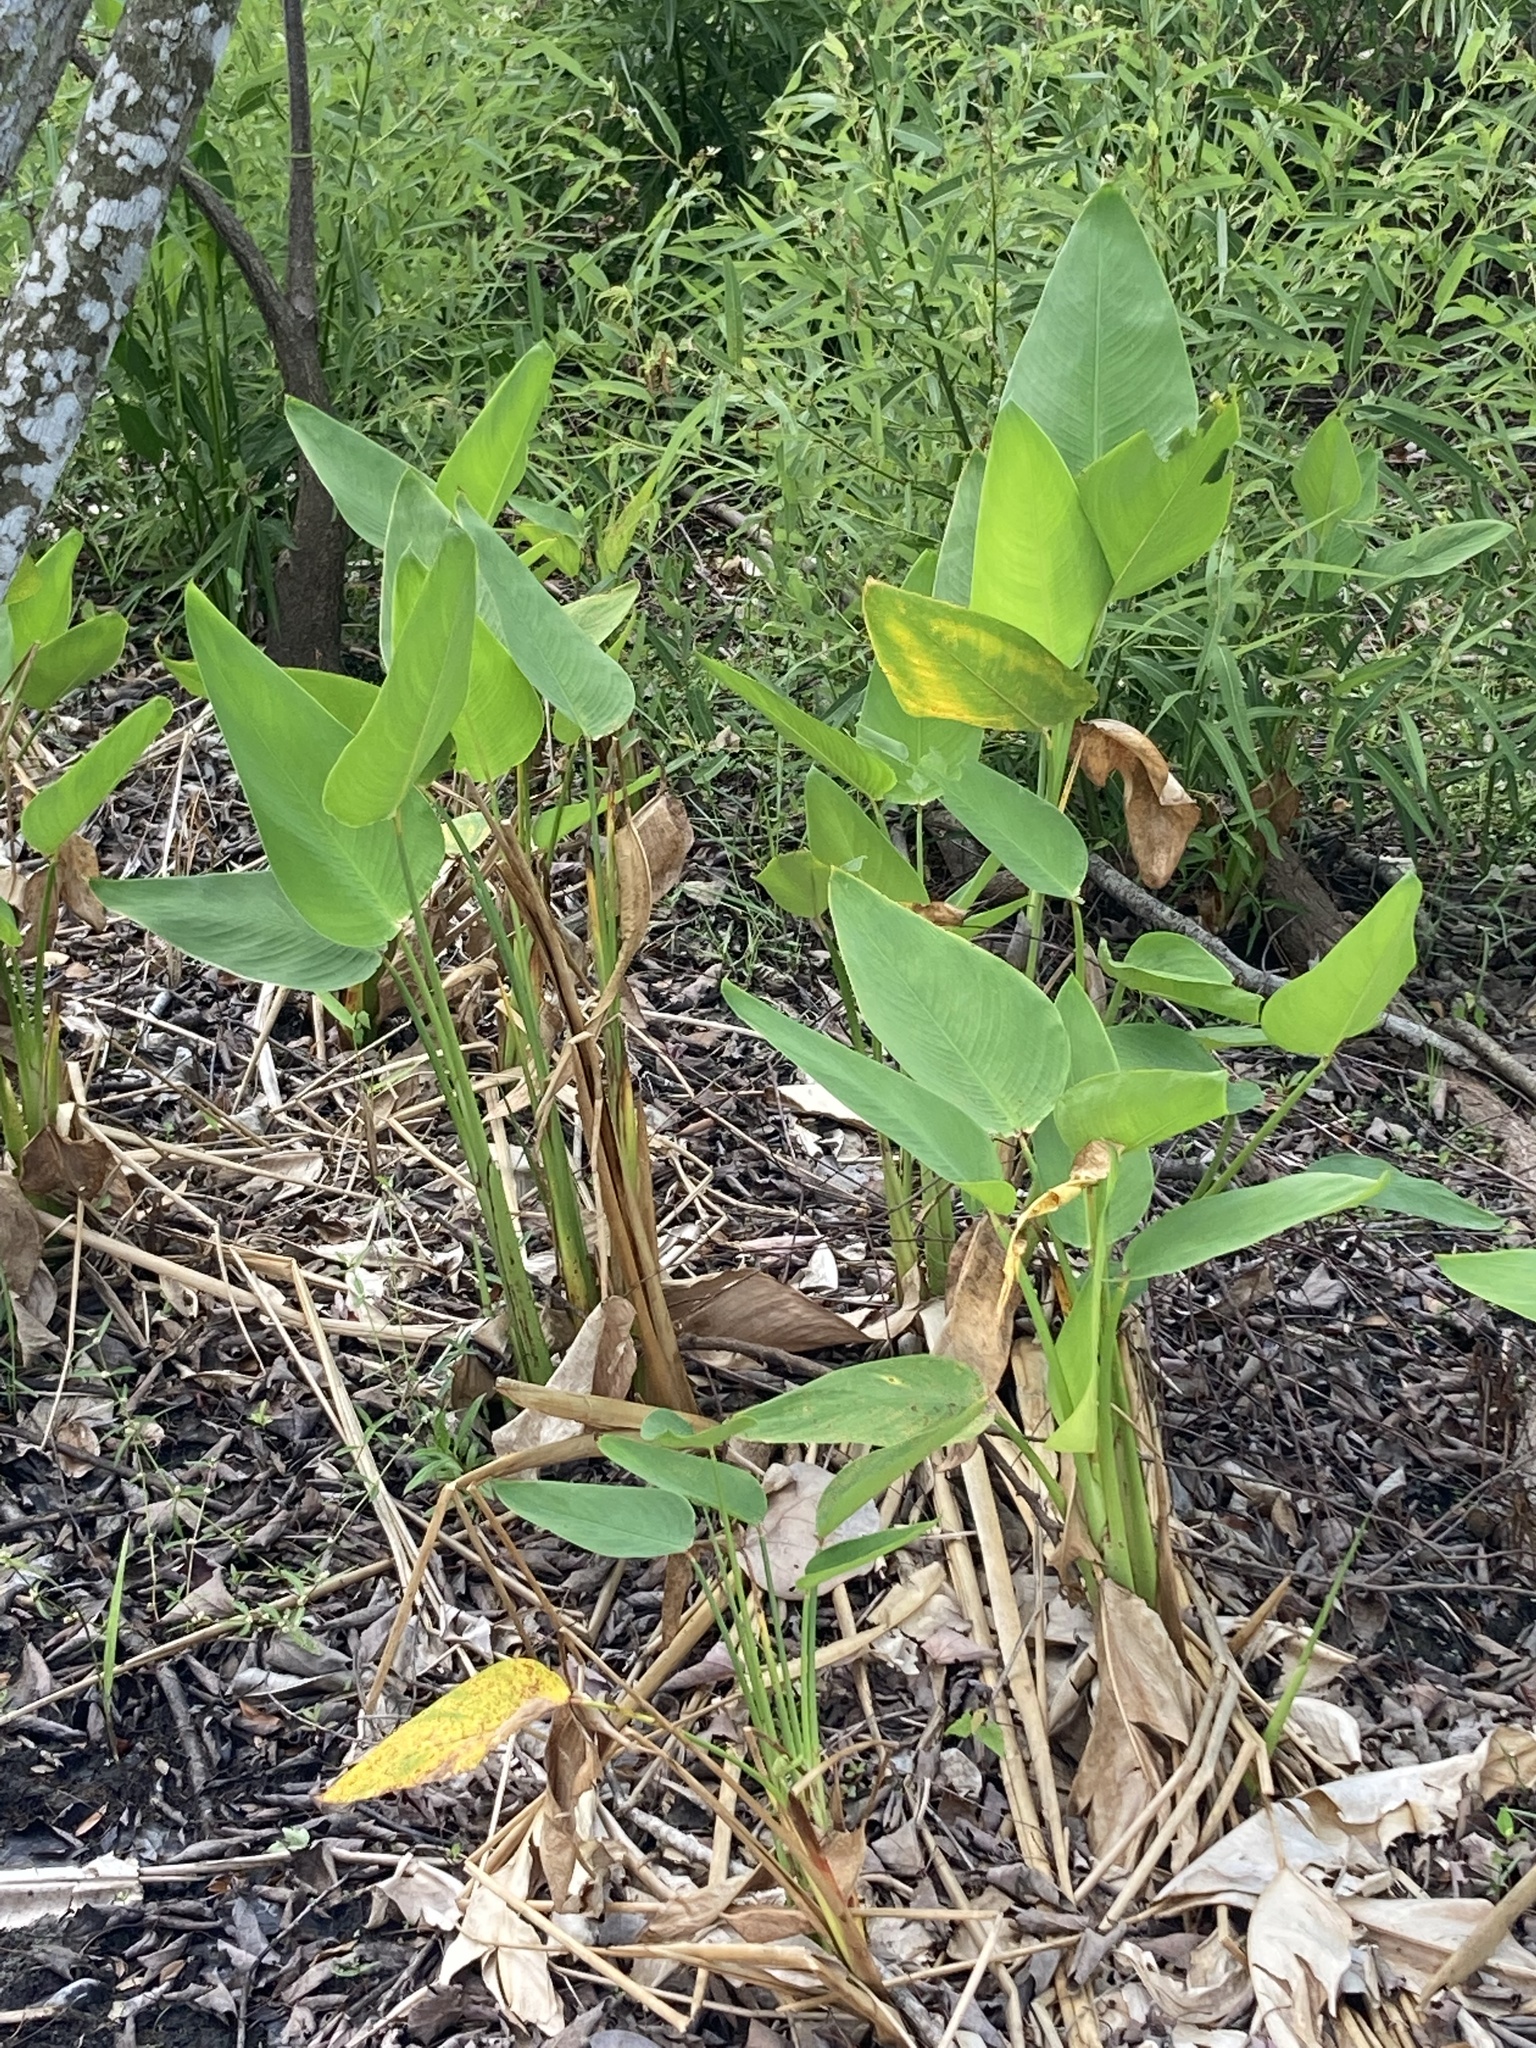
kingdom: Plantae
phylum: Tracheophyta
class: Liliopsida
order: Zingiberales
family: Marantaceae
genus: Thalia
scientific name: Thalia geniculata
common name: Arrowroot
